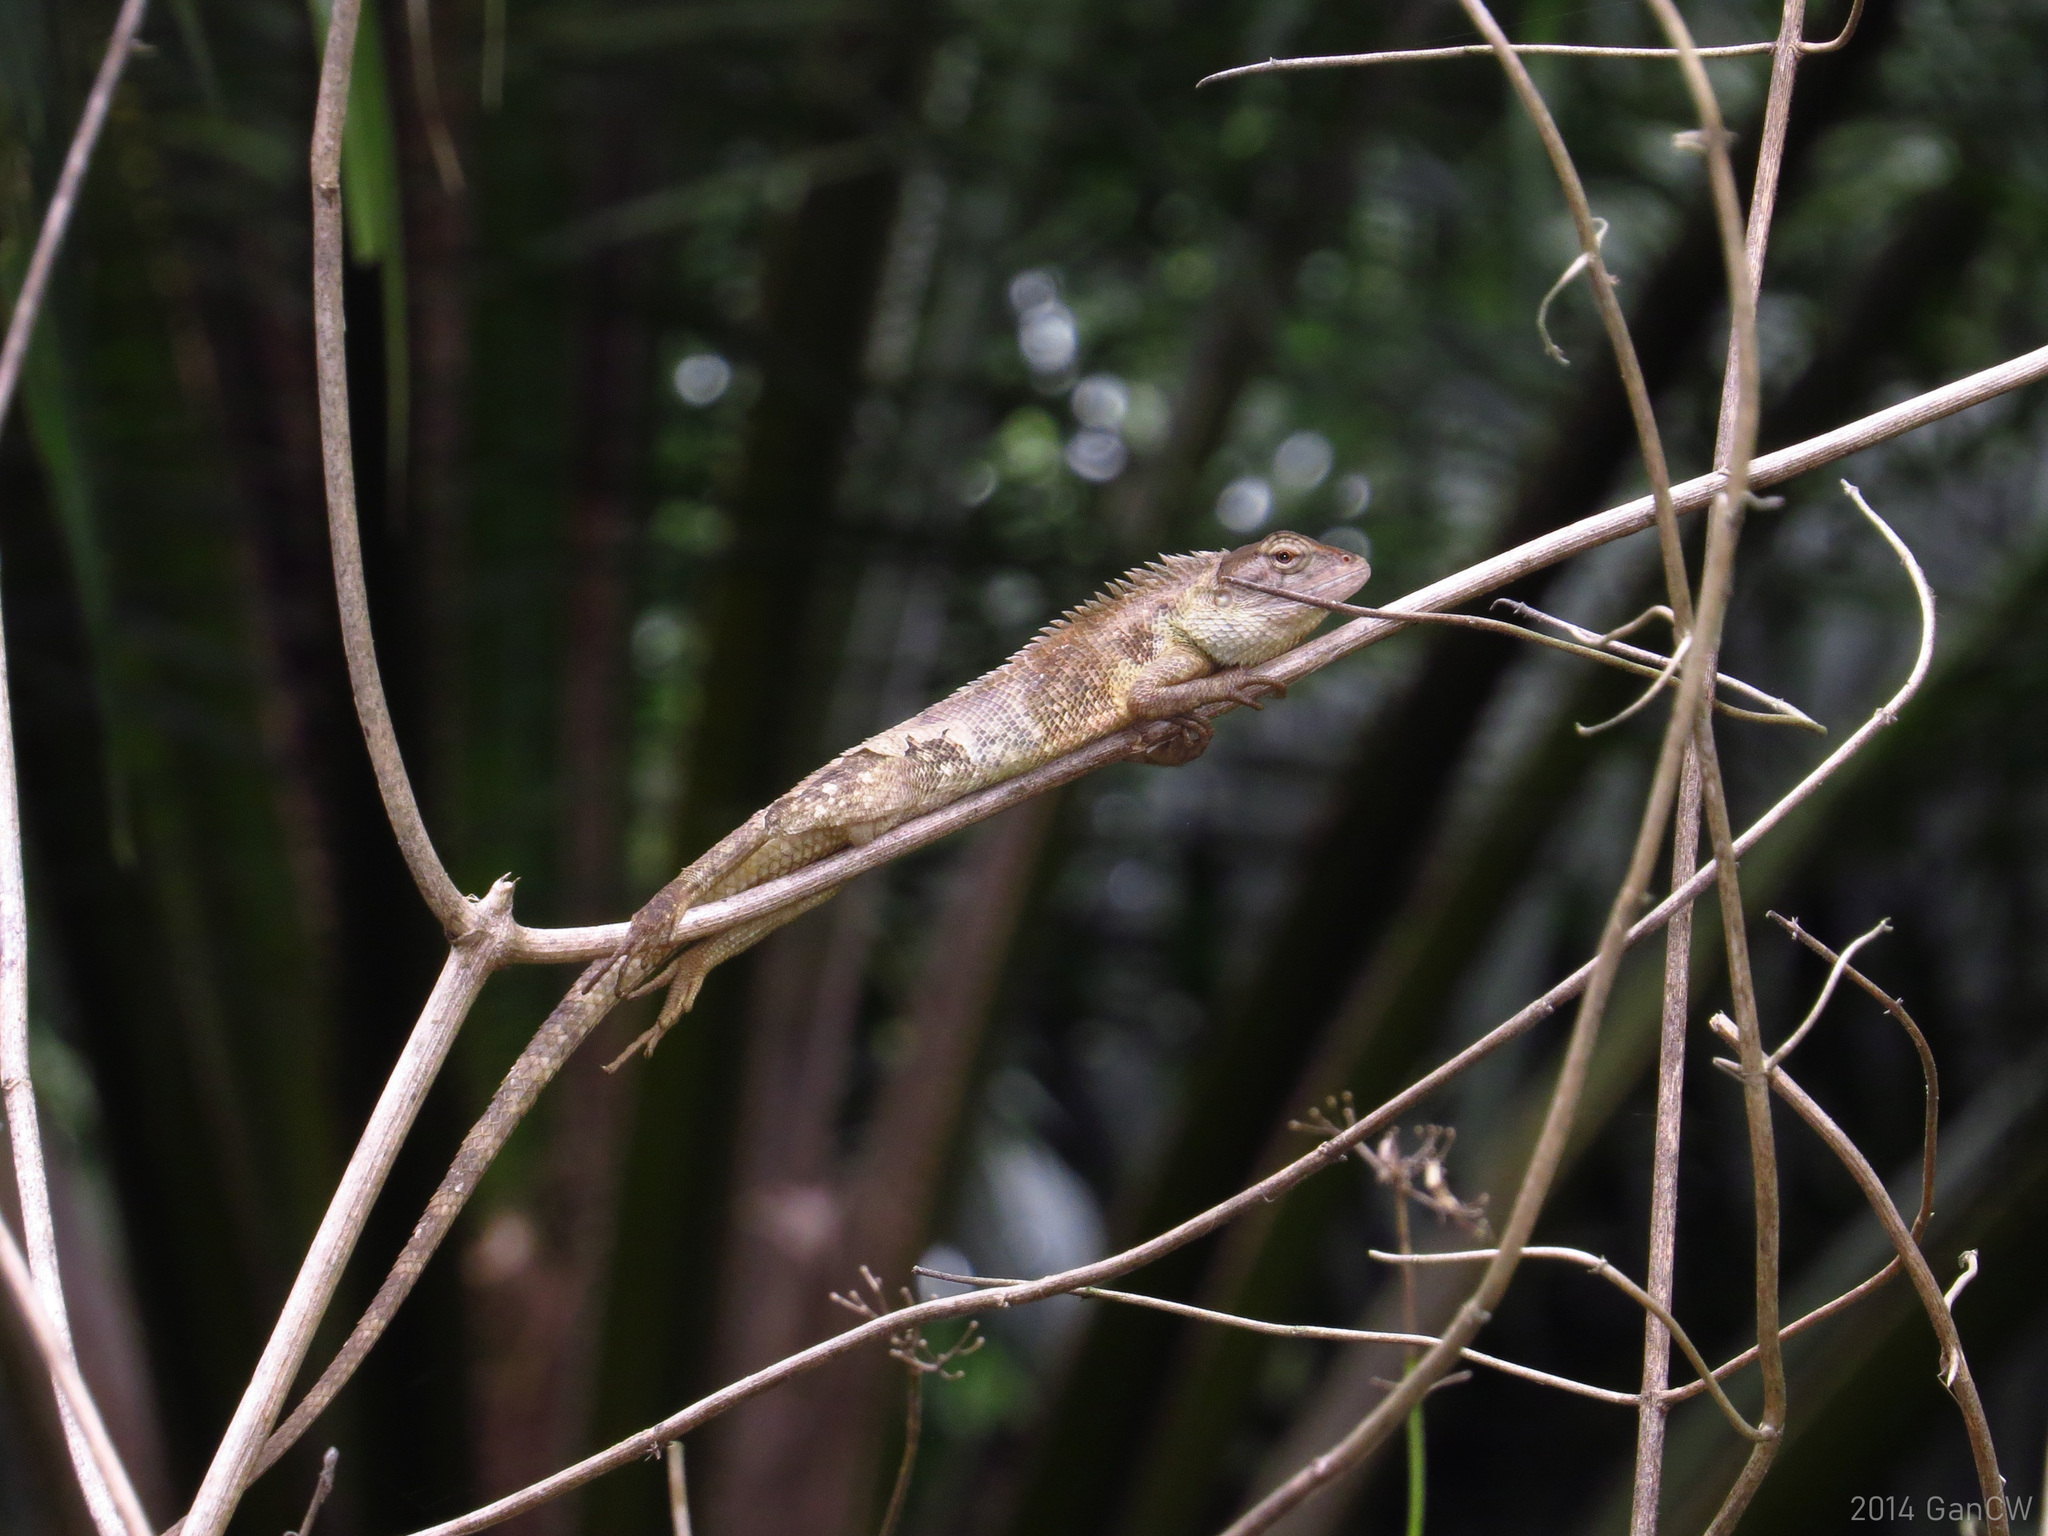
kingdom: Animalia
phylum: Chordata
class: Squamata
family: Agamidae
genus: Calotes
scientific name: Calotes versicolor
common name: Oriental garden lizard
